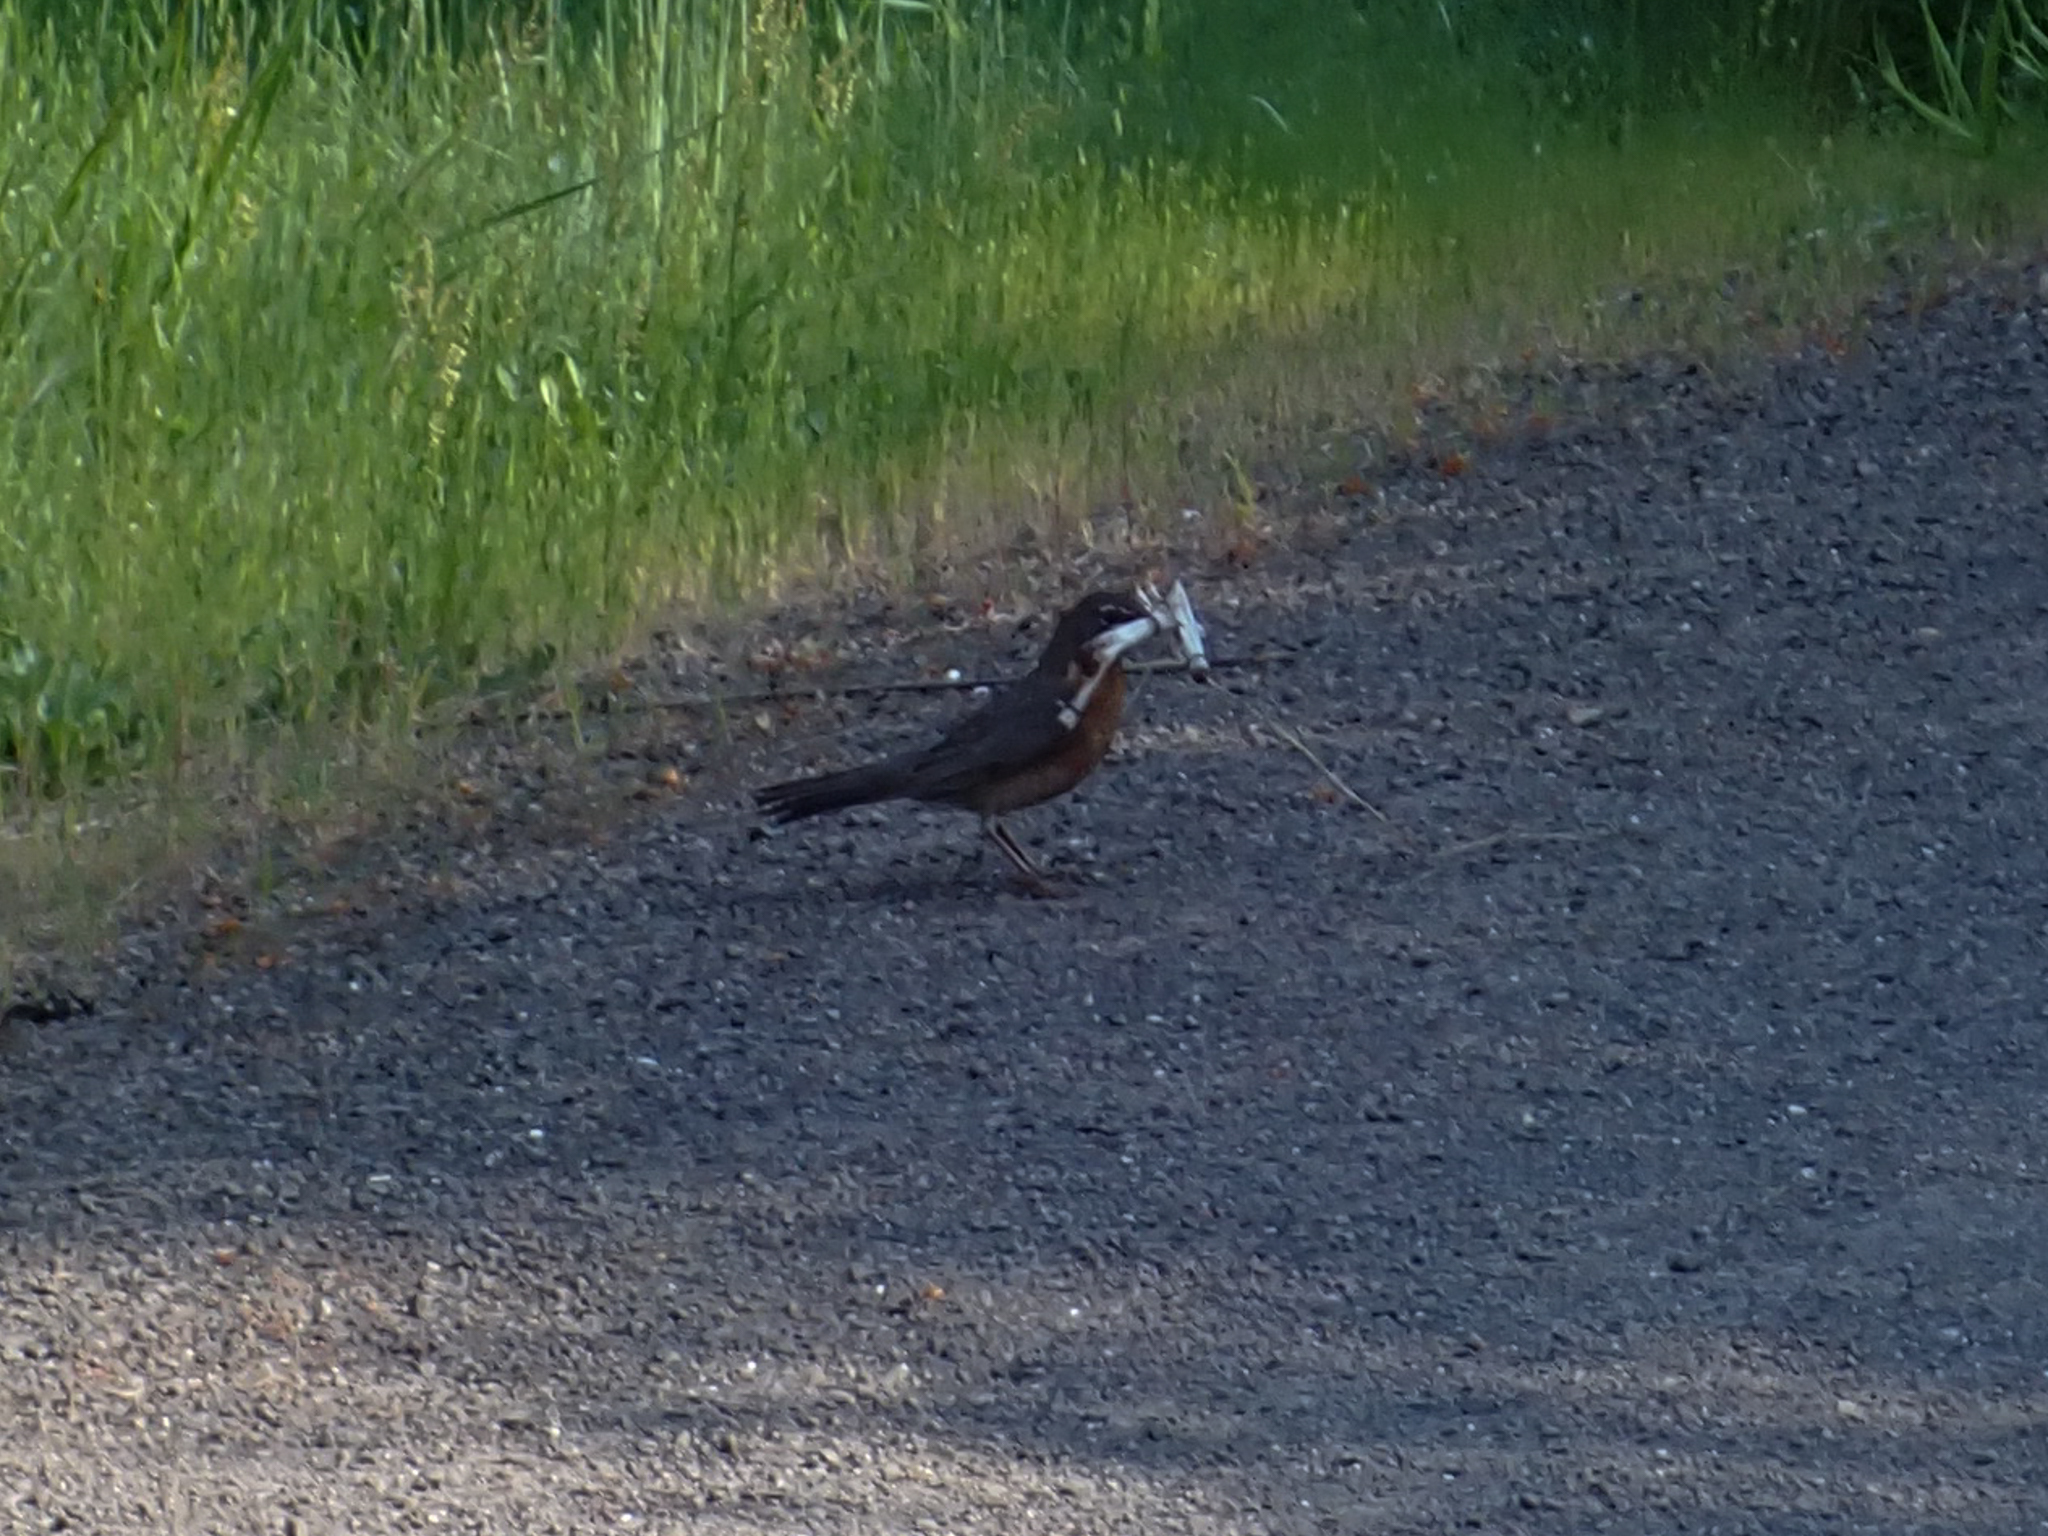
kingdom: Animalia
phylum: Chordata
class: Aves
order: Passeriformes
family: Turdidae
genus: Turdus
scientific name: Turdus migratorius
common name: American robin
